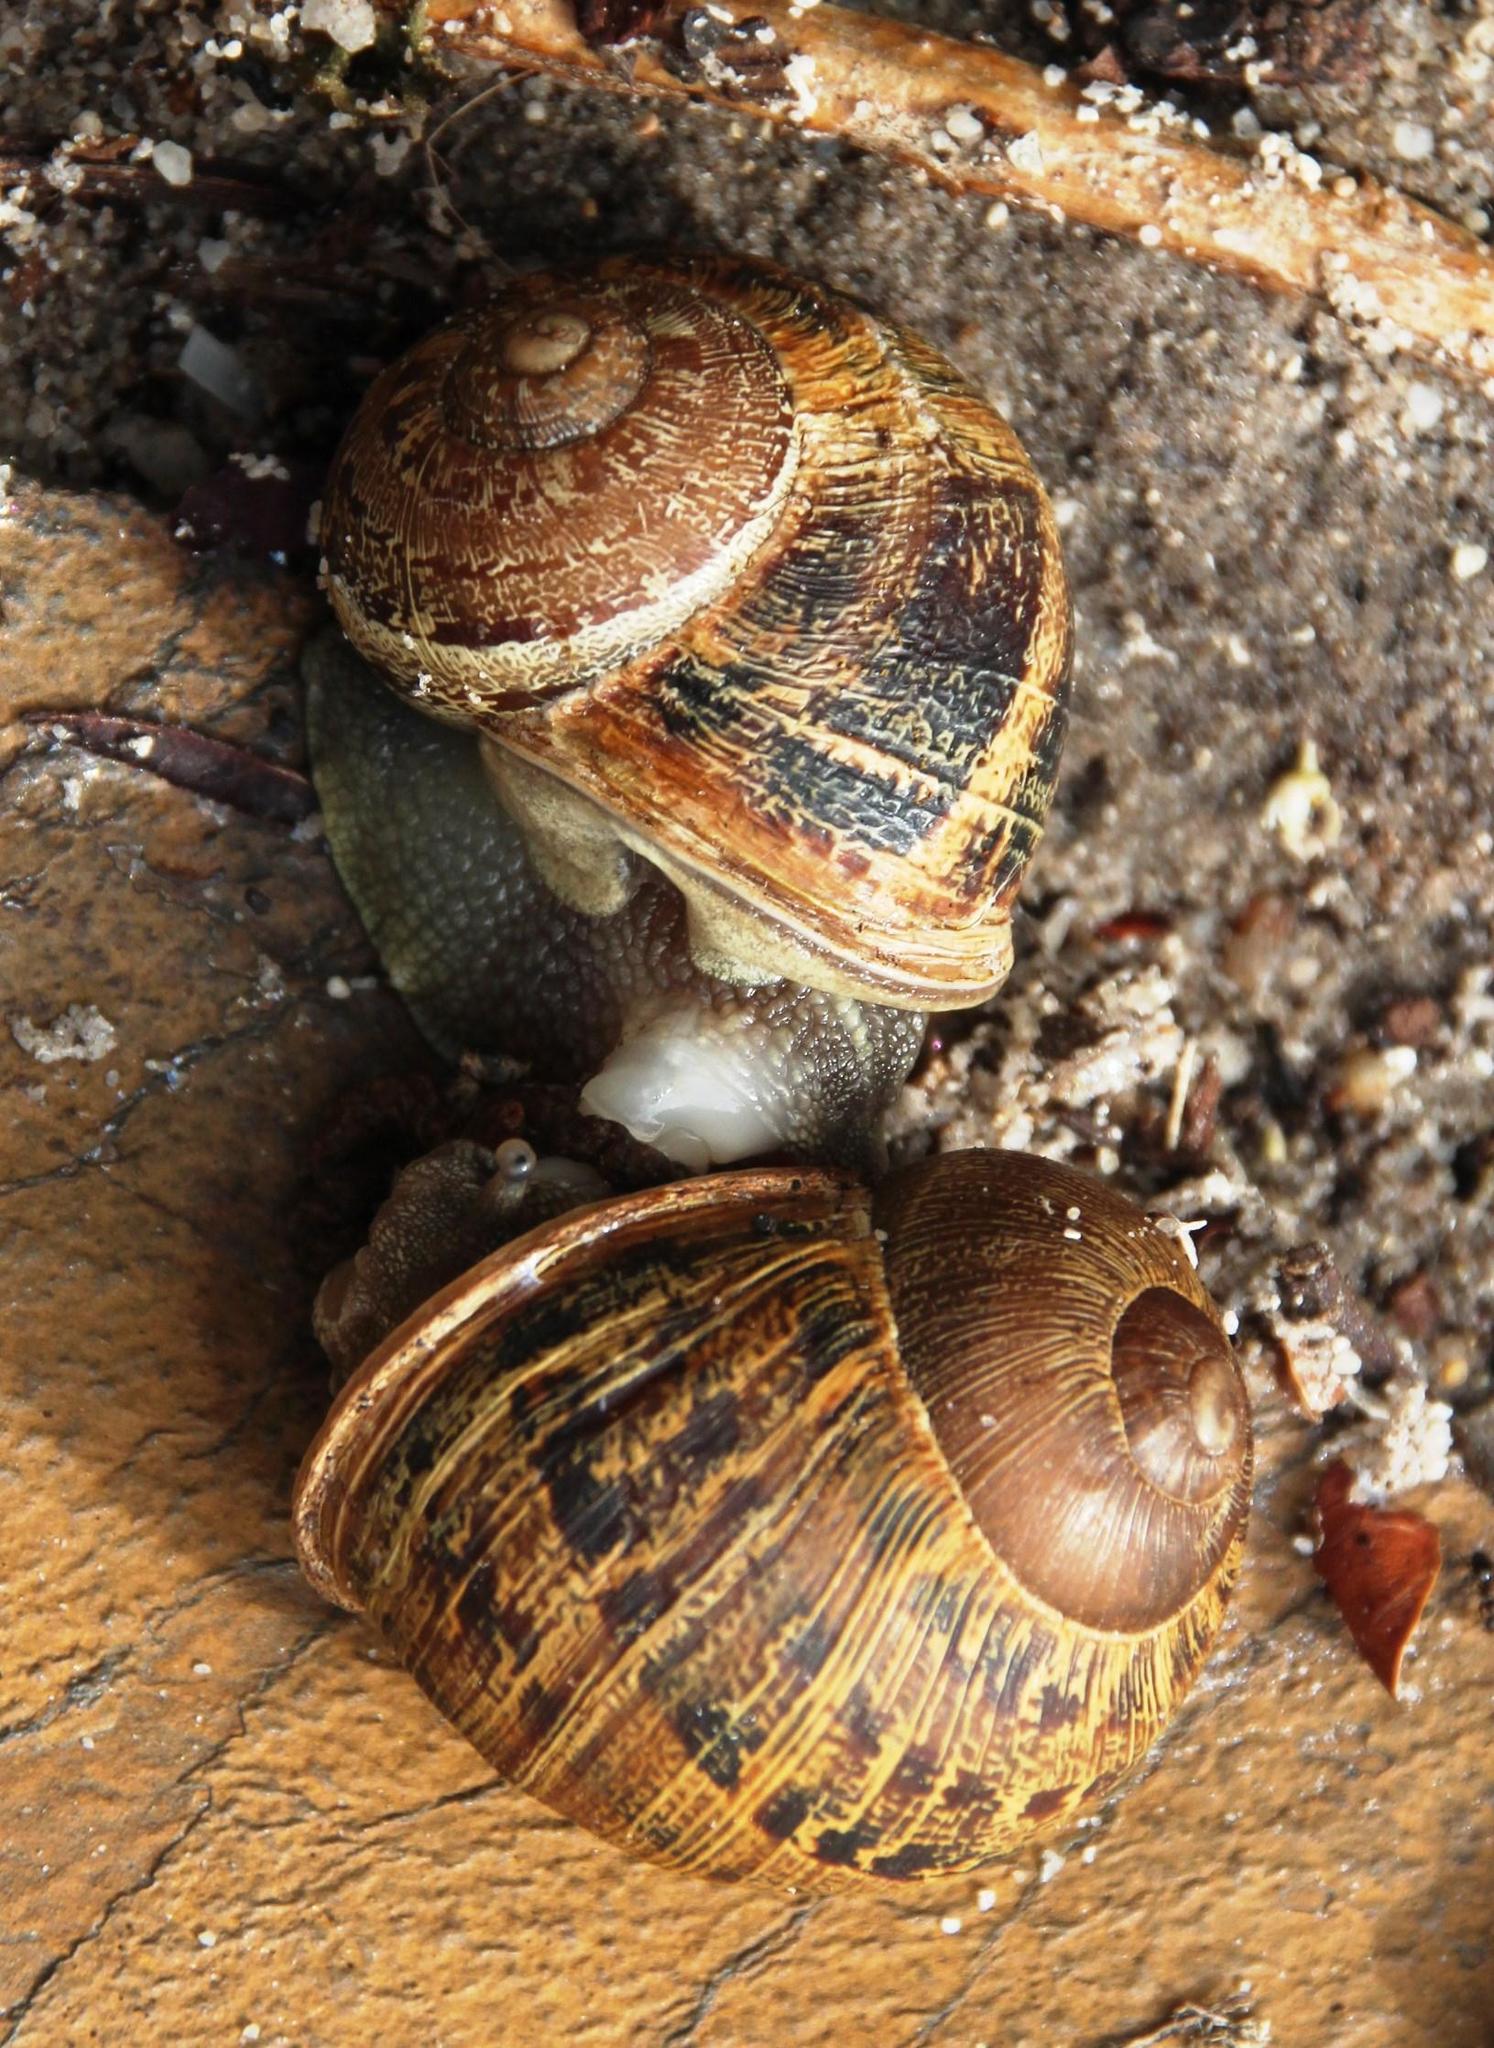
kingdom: Animalia
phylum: Mollusca
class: Gastropoda
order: Stylommatophora
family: Helicidae
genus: Cornu
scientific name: Cornu aspersum
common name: Brown garden snail
